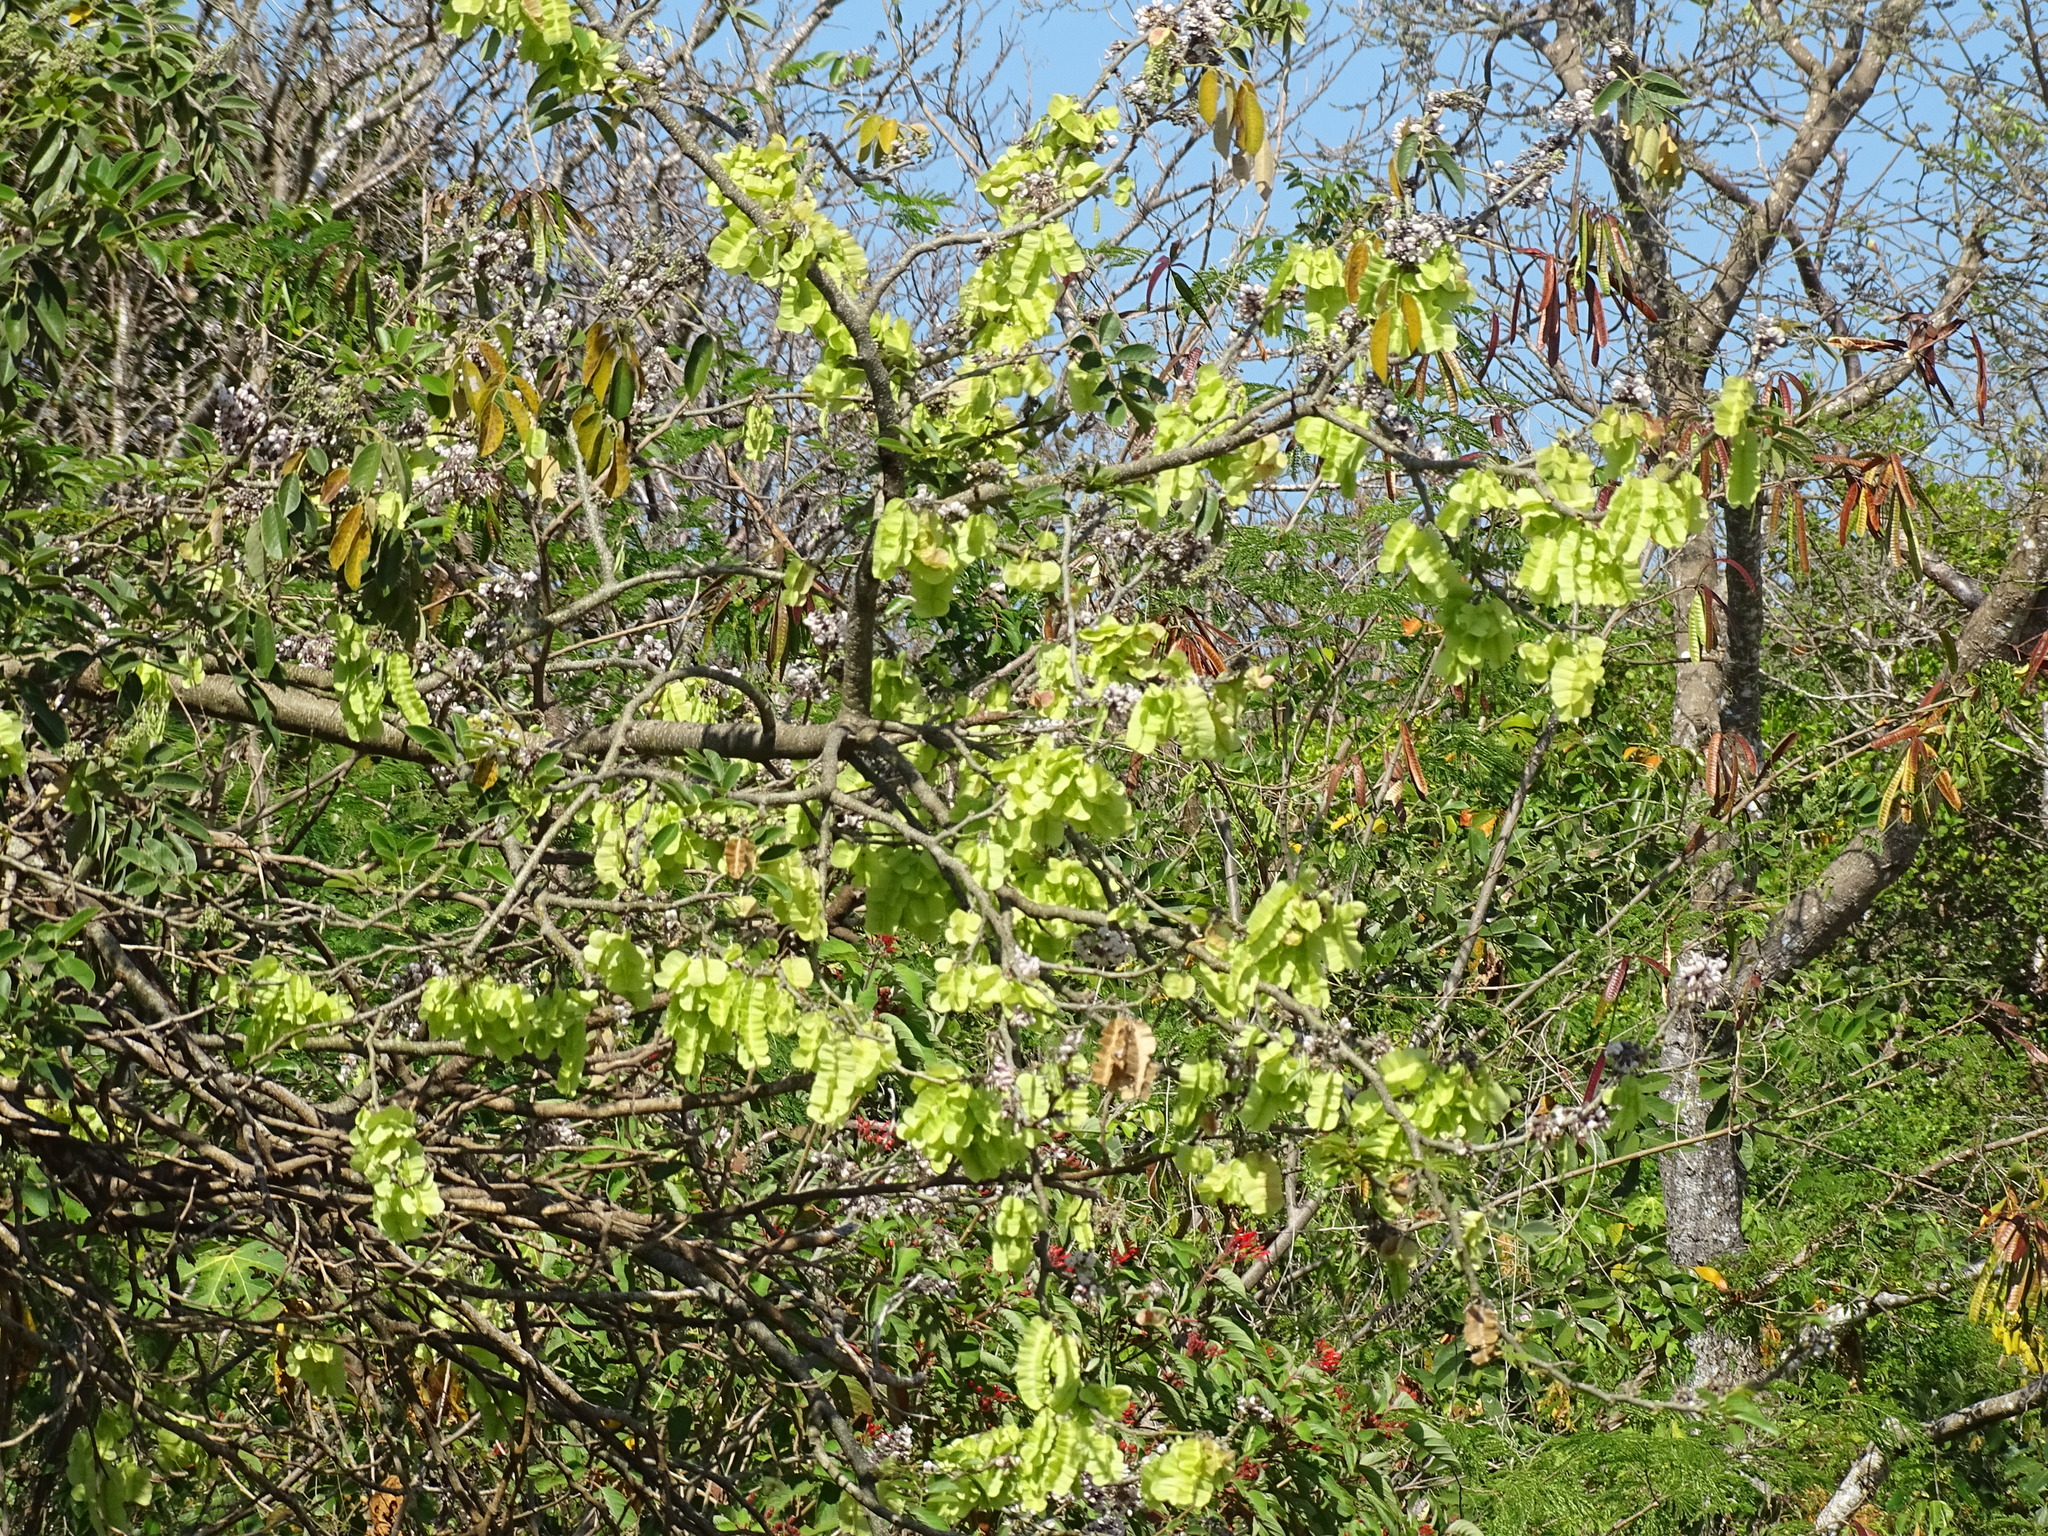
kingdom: Plantae
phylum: Tracheophyta
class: Magnoliopsida
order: Fabales
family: Fabaceae
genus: Piscidia
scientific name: Piscidia piscipula
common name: Florida fishpoison tree
